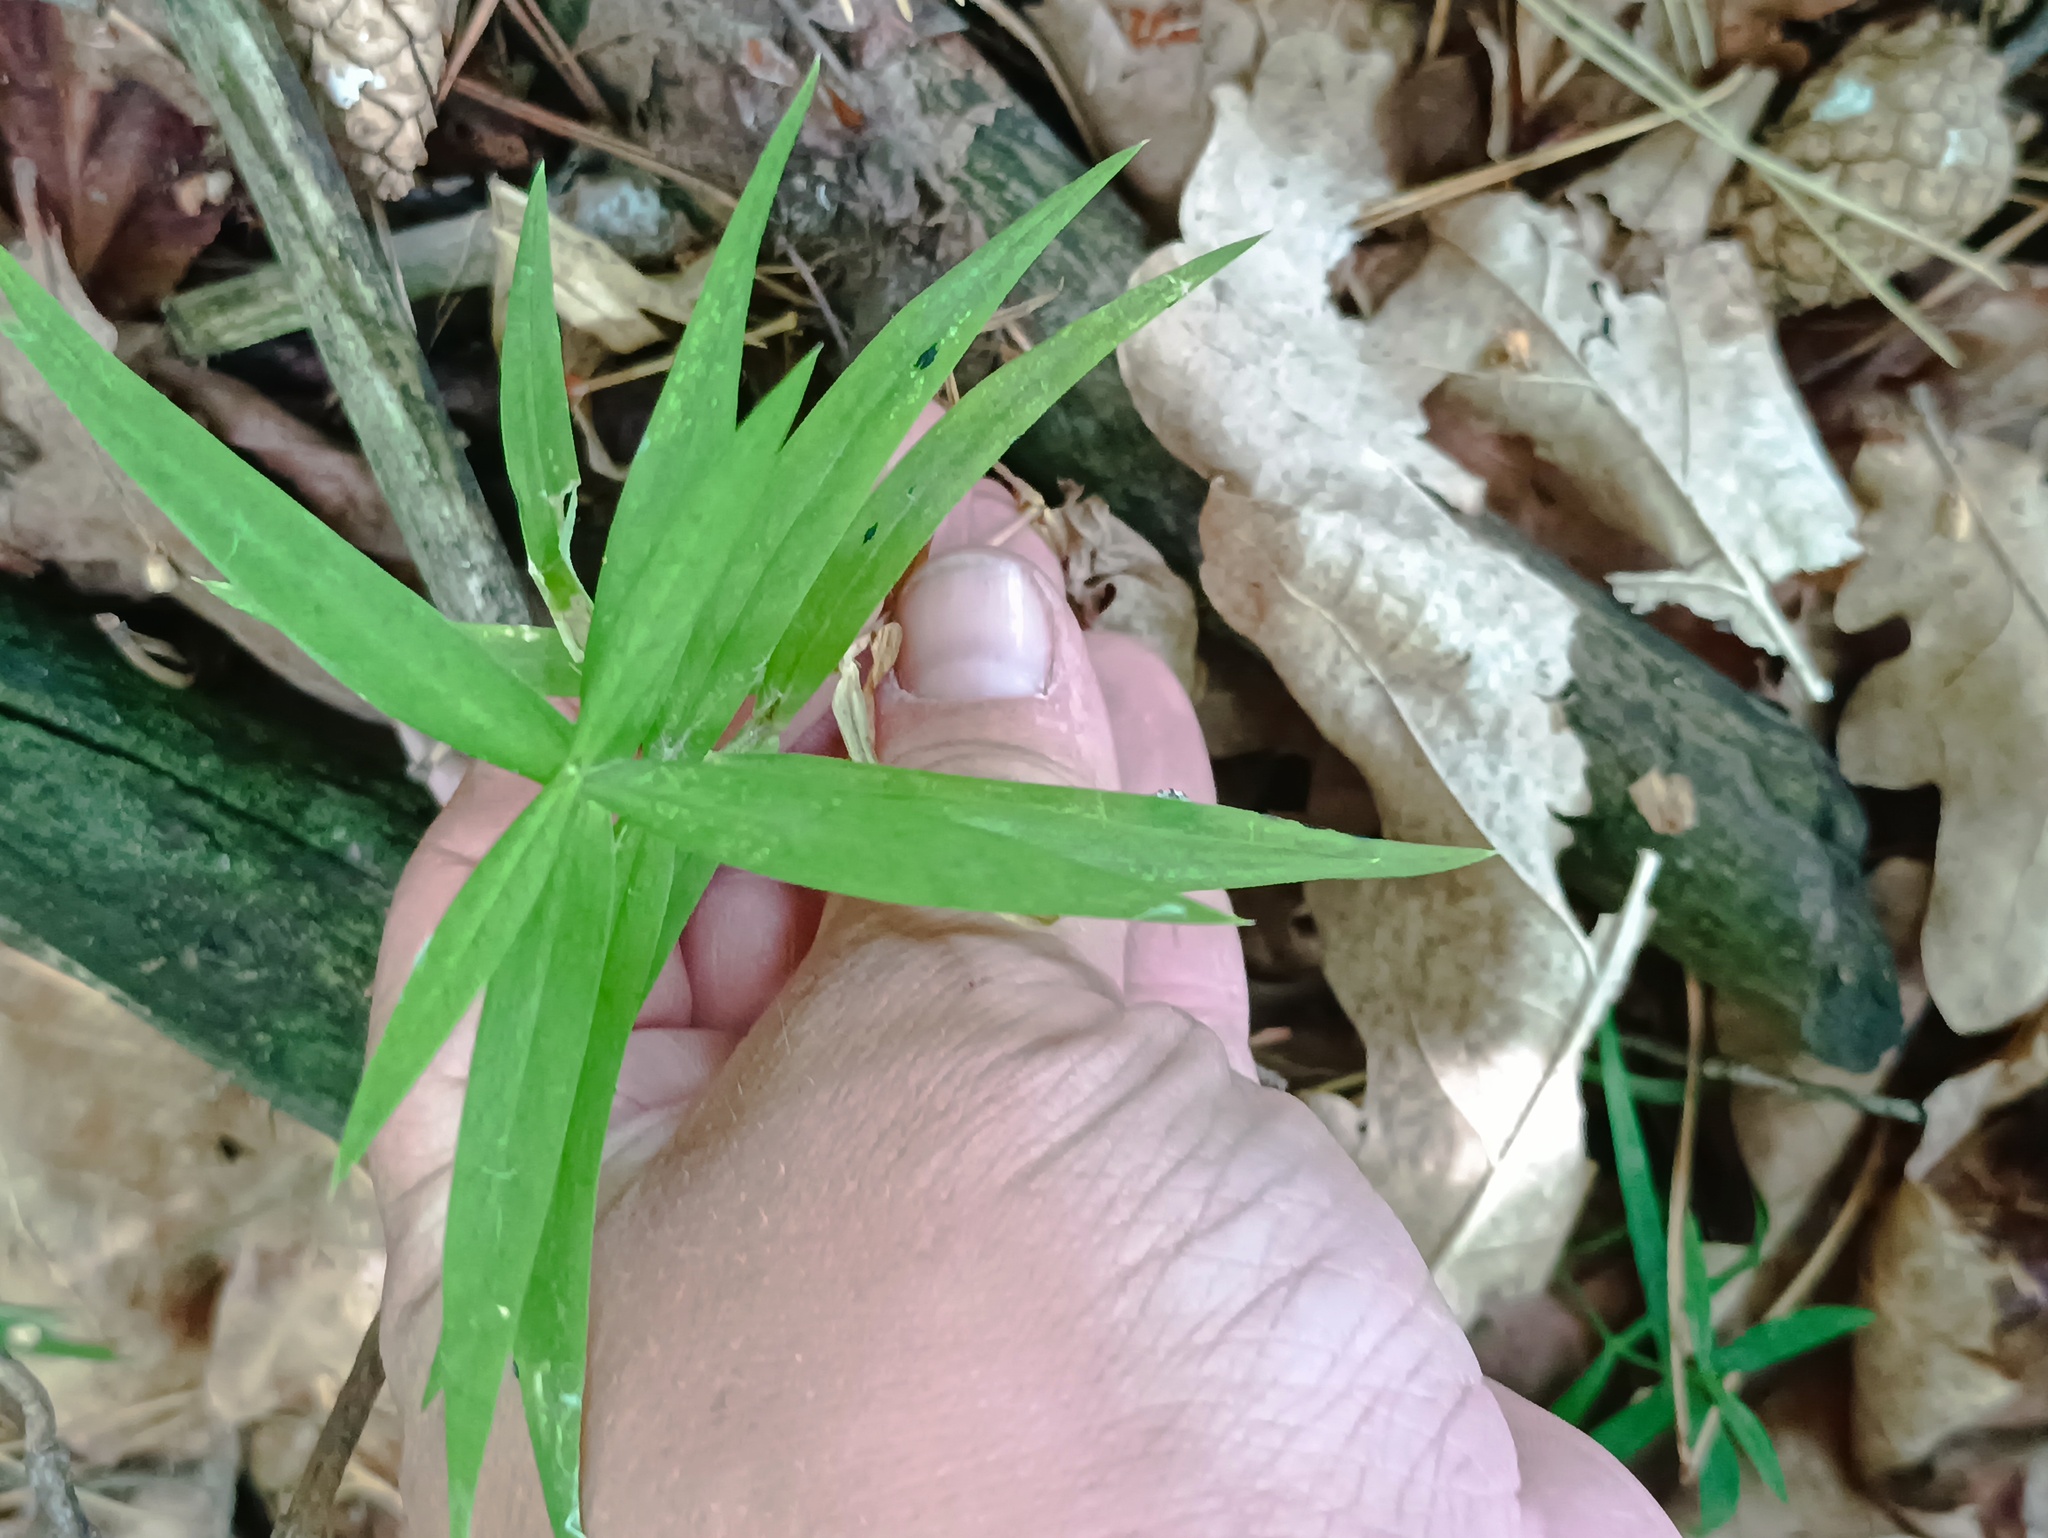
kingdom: Plantae
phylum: Tracheophyta
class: Magnoliopsida
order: Caryophyllales
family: Caryophyllaceae
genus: Rabelera
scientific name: Rabelera holostea
